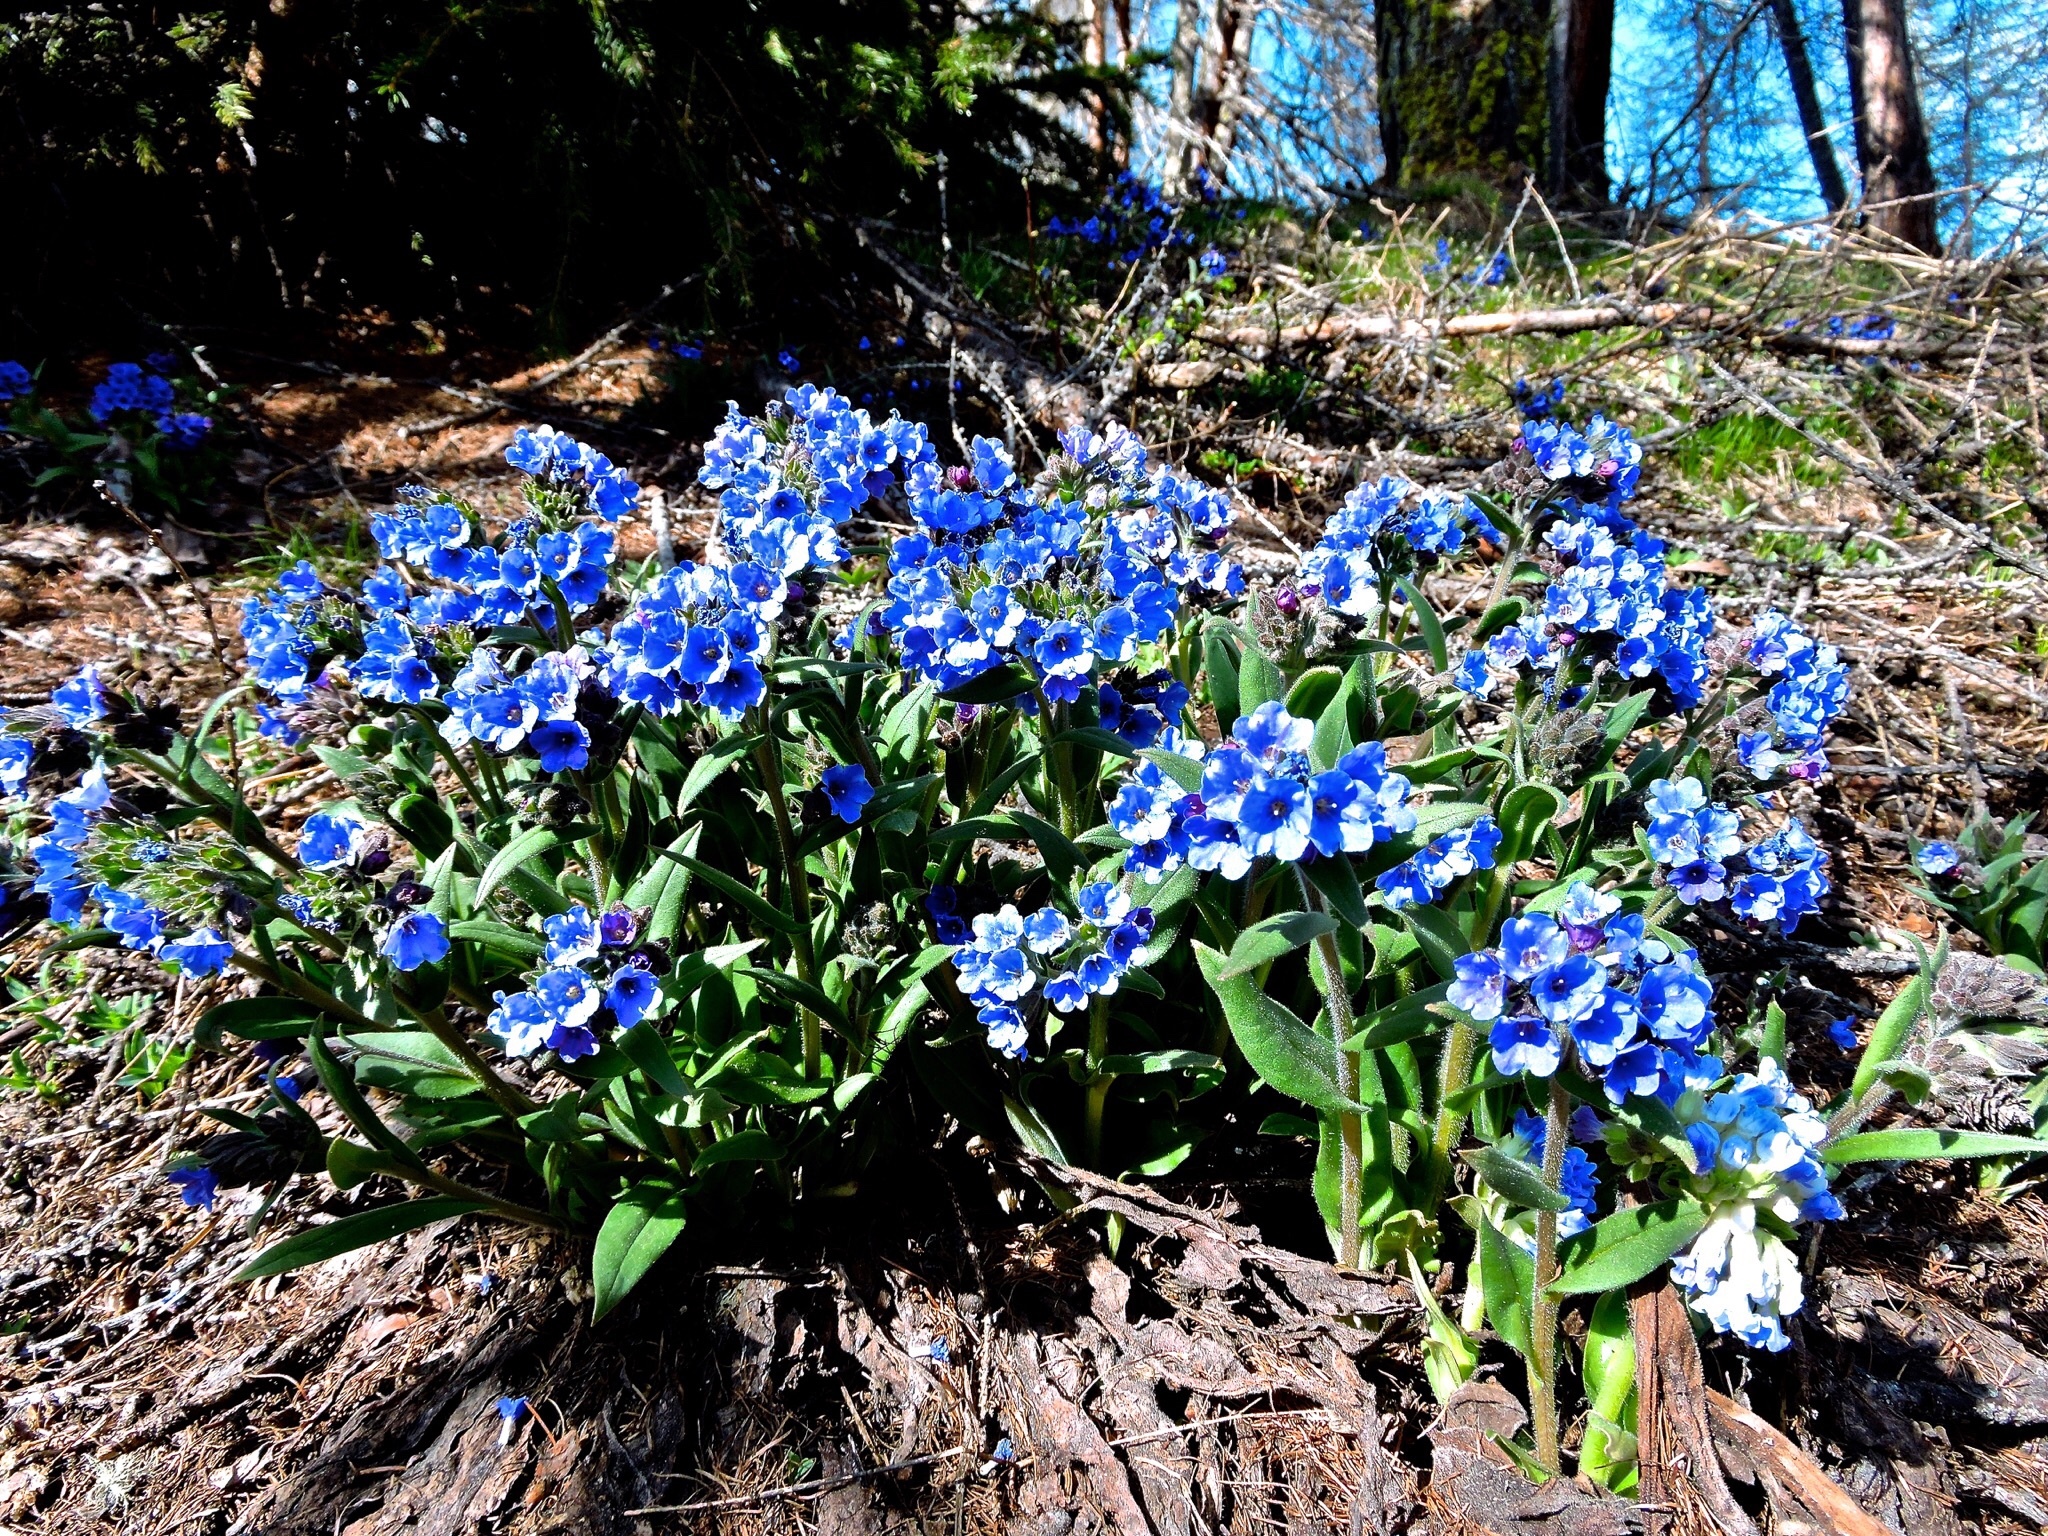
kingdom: Plantae
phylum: Tracheophyta
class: Magnoliopsida
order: Boraginales
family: Boraginaceae
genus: Pulmonaria
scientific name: Pulmonaria australis
